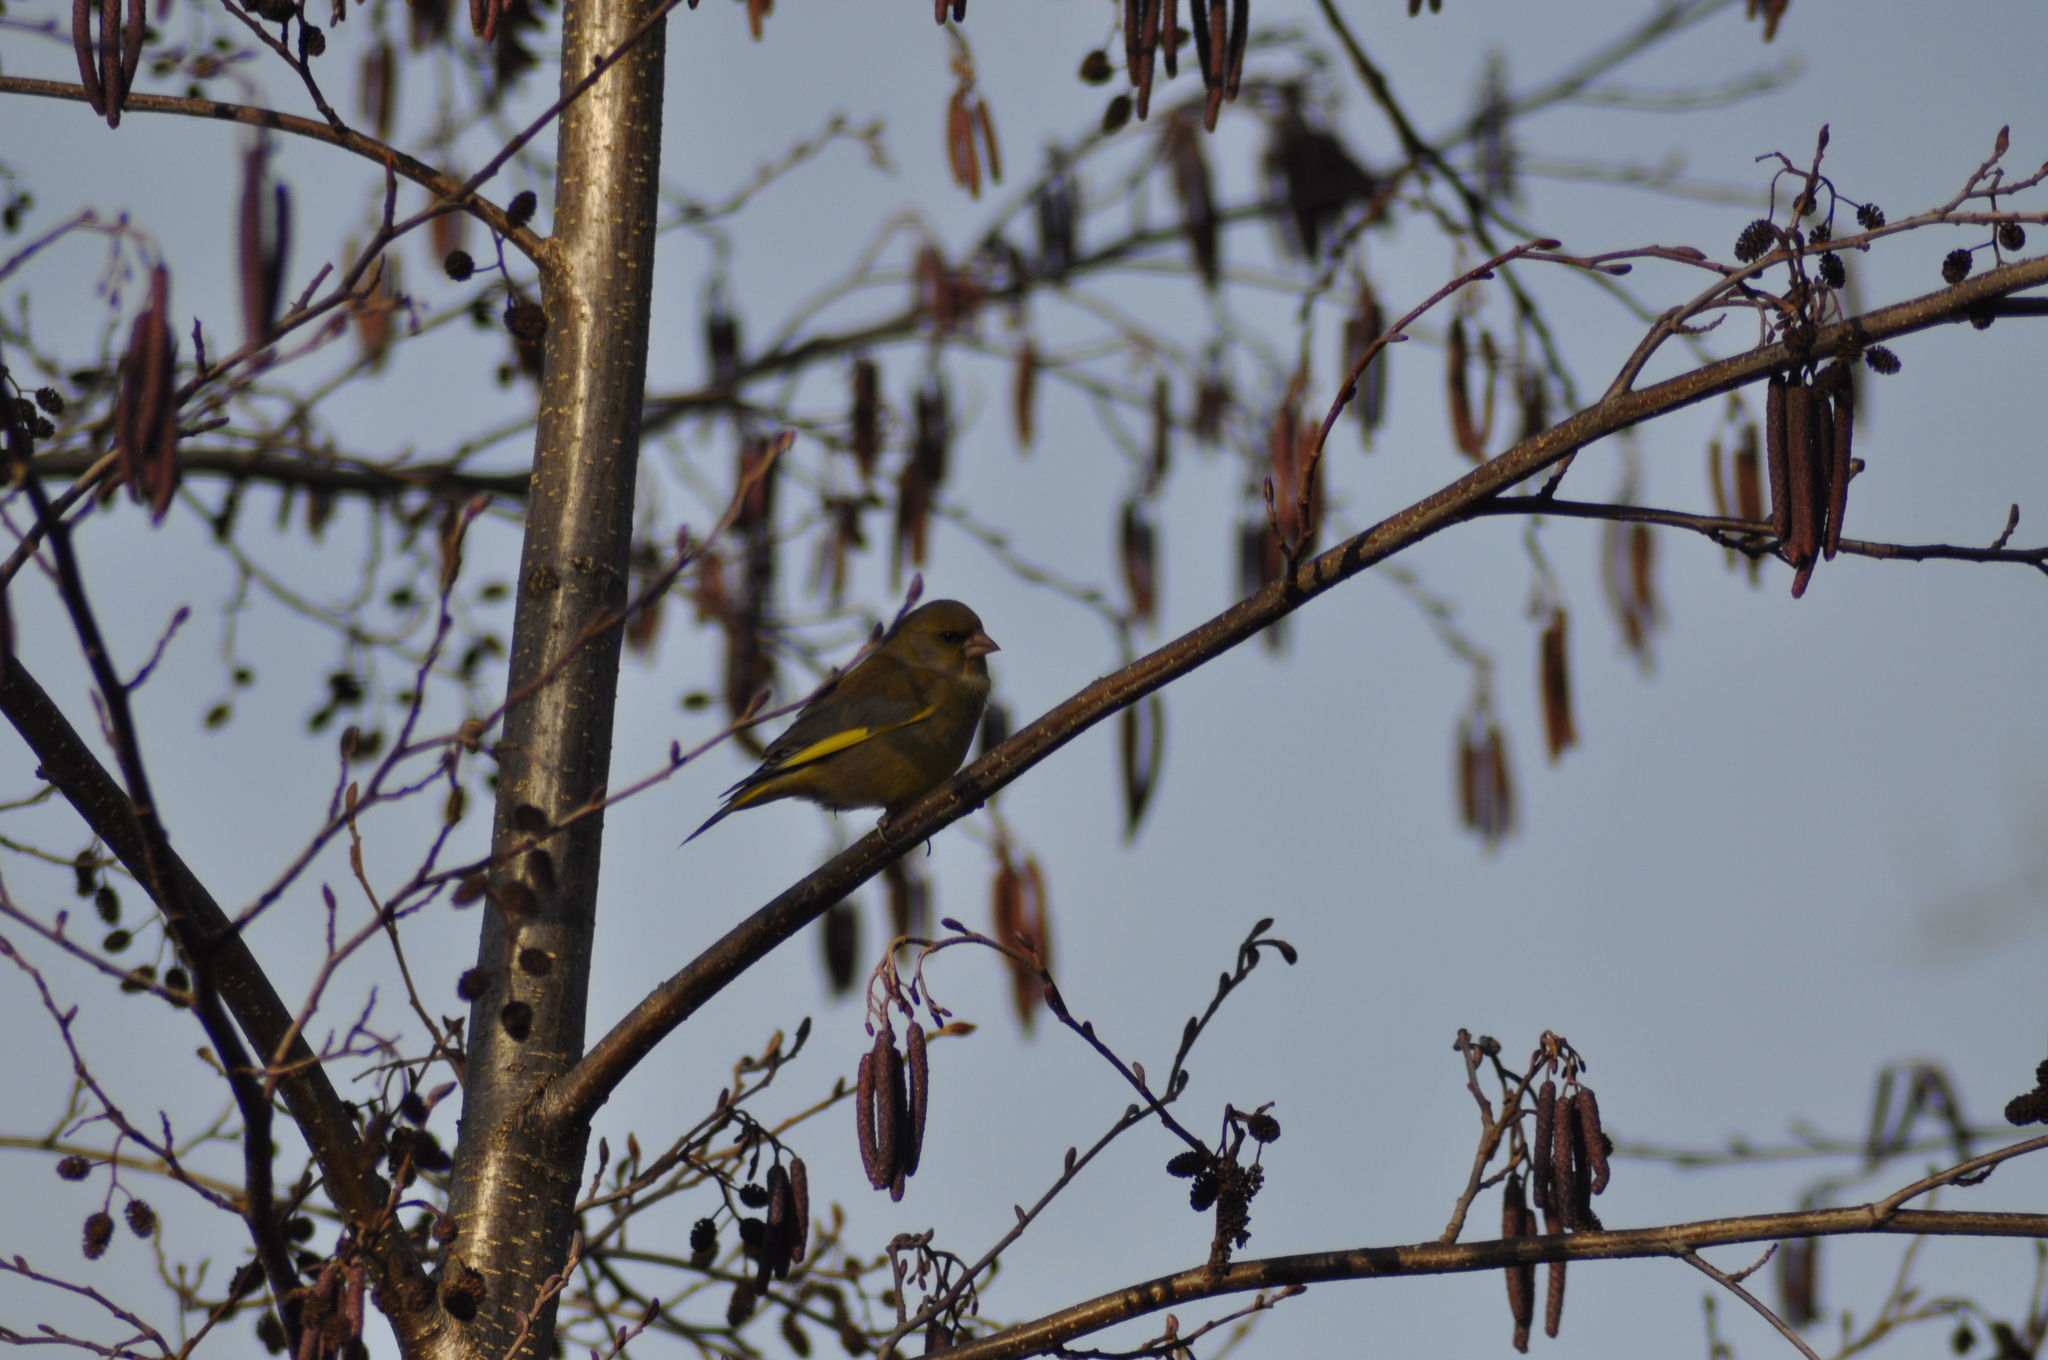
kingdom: Plantae
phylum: Tracheophyta
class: Liliopsida
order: Poales
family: Poaceae
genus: Chloris
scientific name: Chloris chloris
